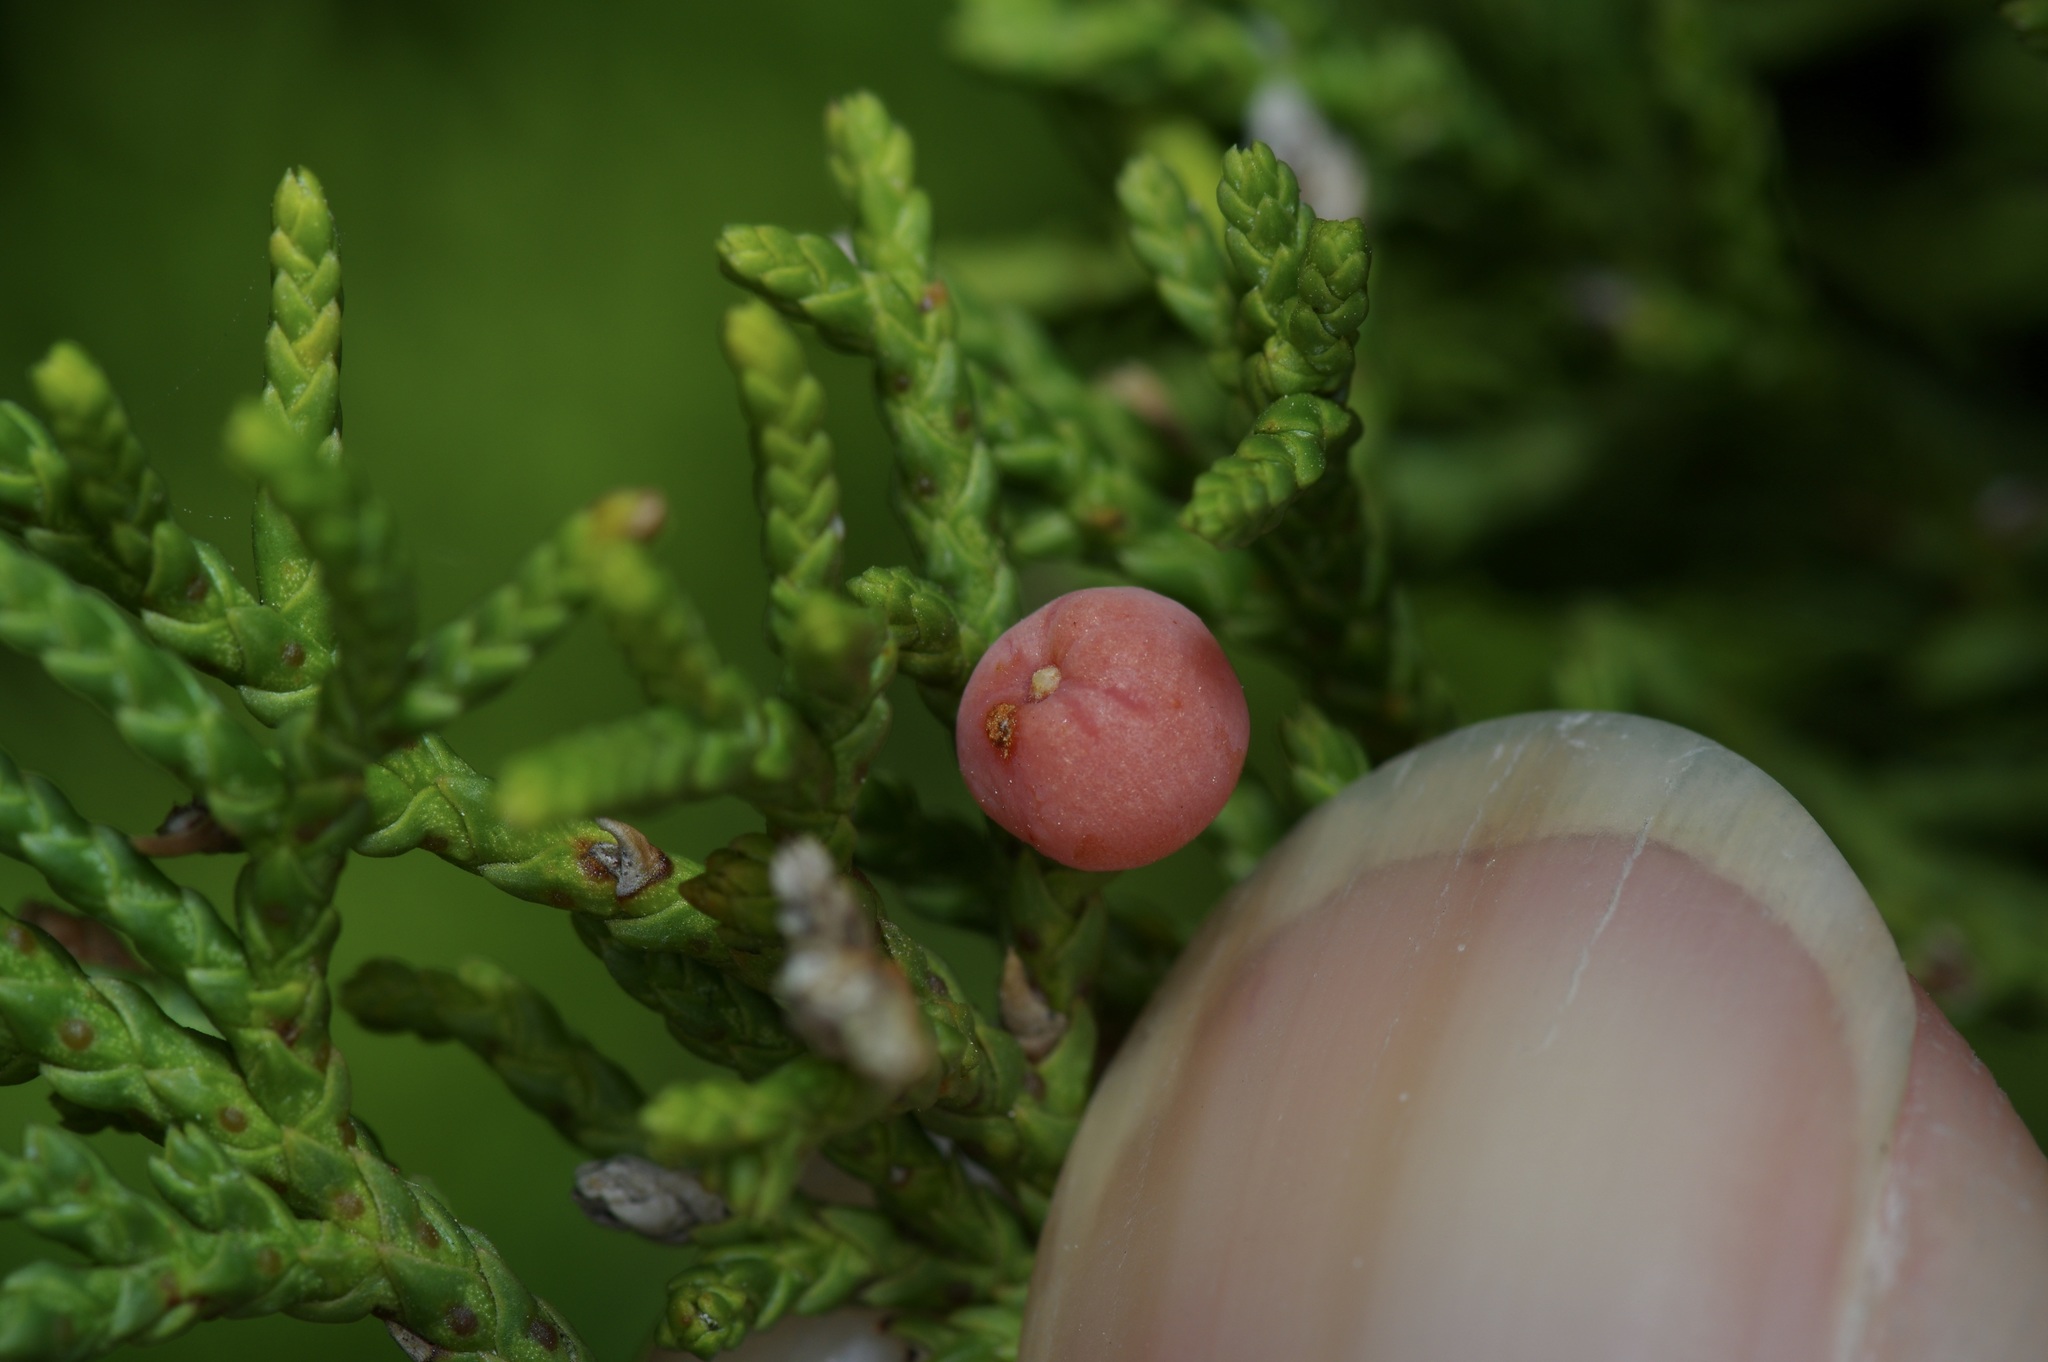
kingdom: Animalia
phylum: Arthropoda
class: Insecta
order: Diptera
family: Cecidomyiidae
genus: Walshomyia
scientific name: Walshomyia texana
